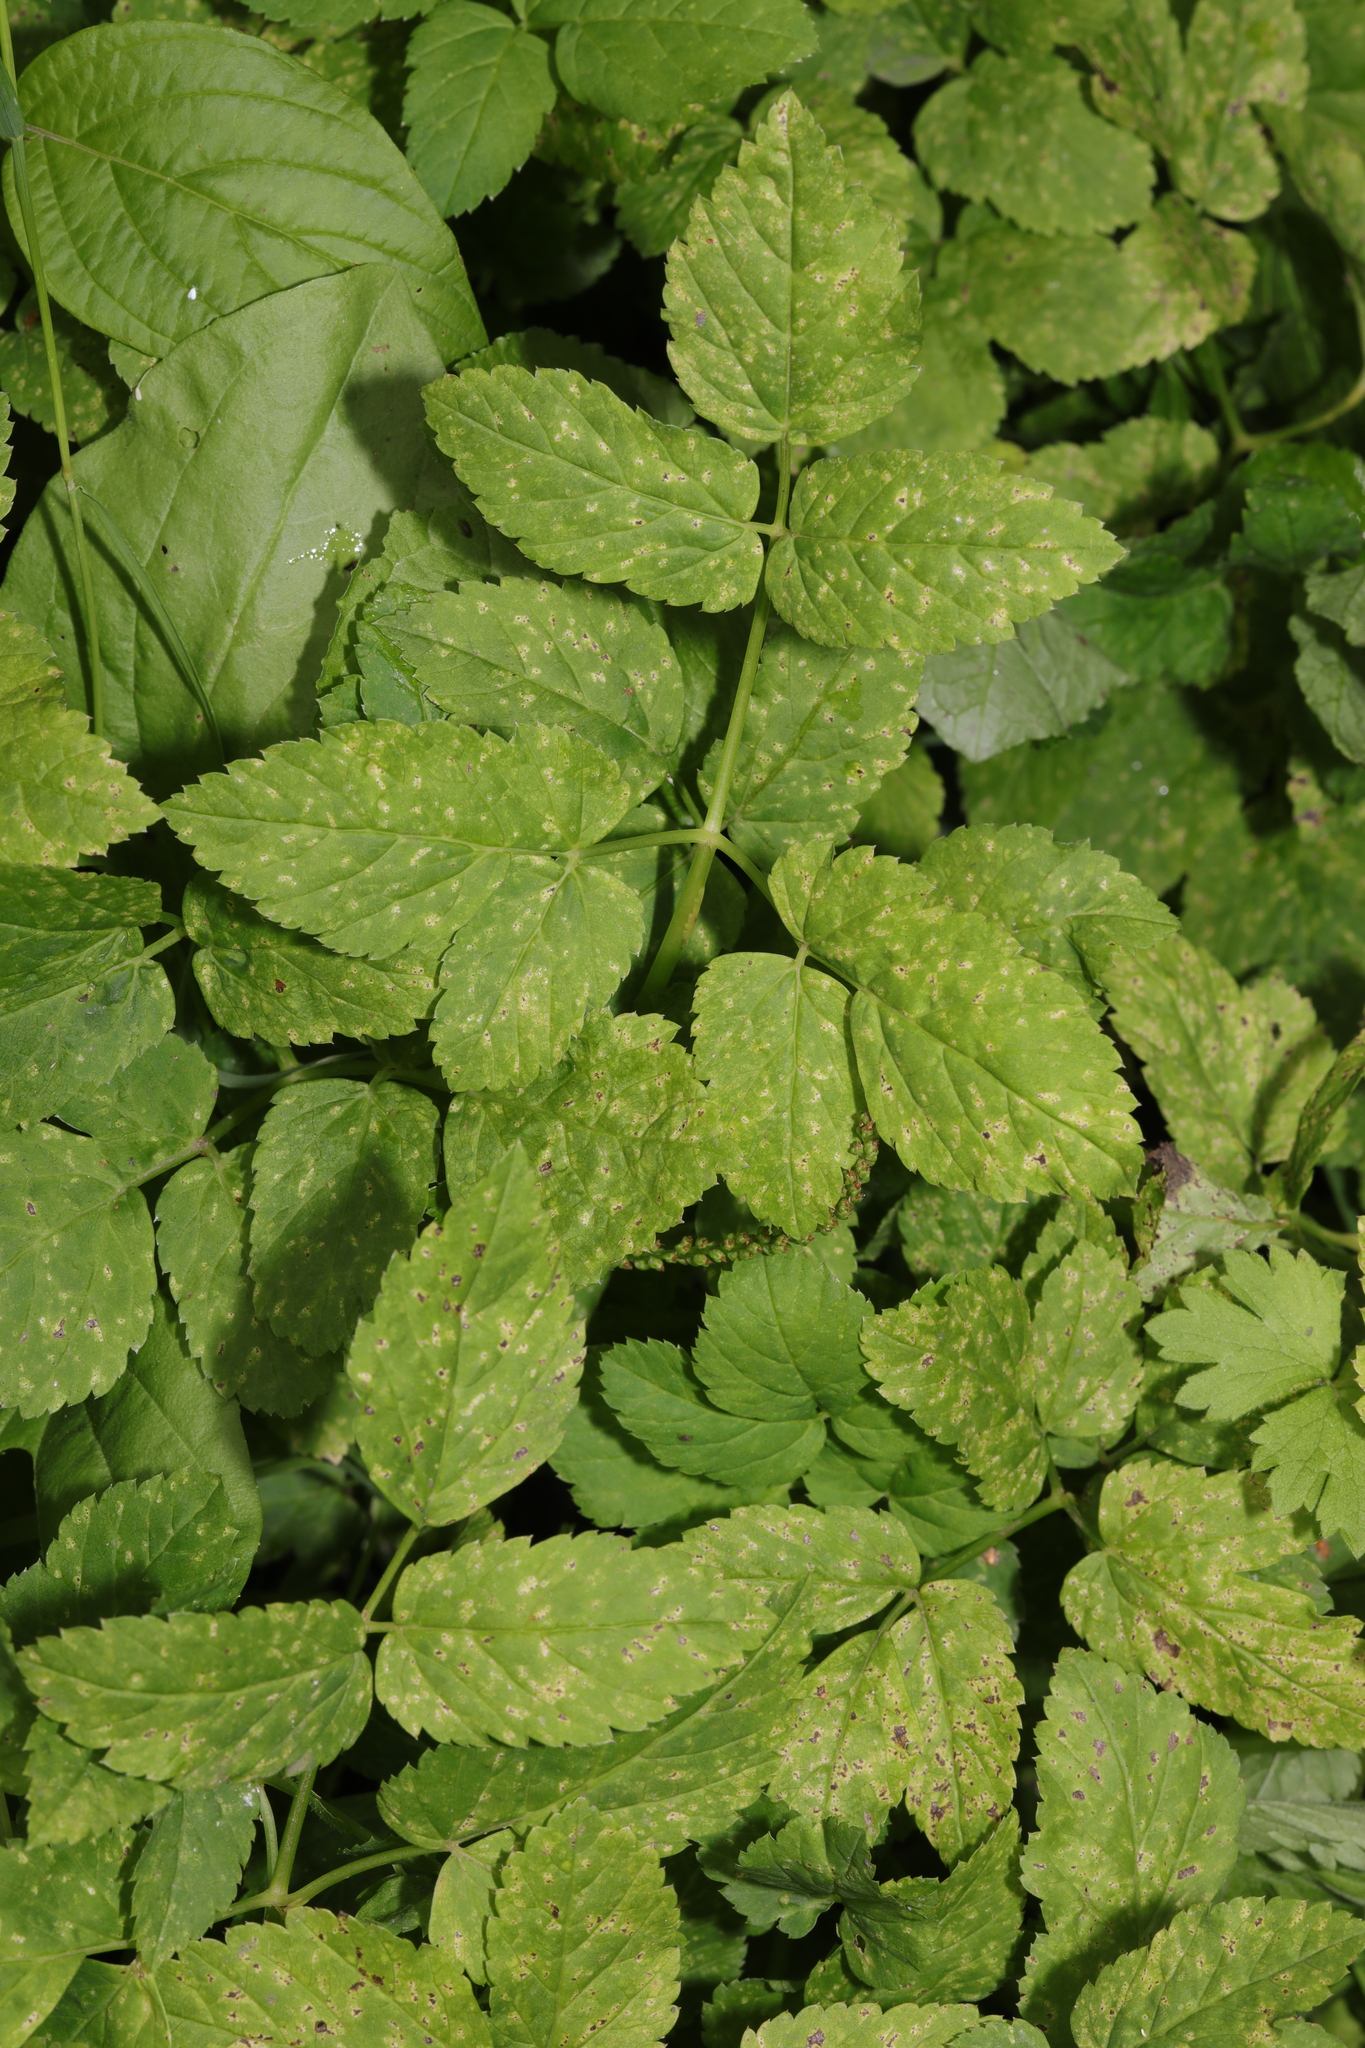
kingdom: Plantae
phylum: Tracheophyta
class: Magnoliopsida
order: Apiales
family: Apiaceae
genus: Aegopodium
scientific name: Aegopodium podagraria
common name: Ground-elder
